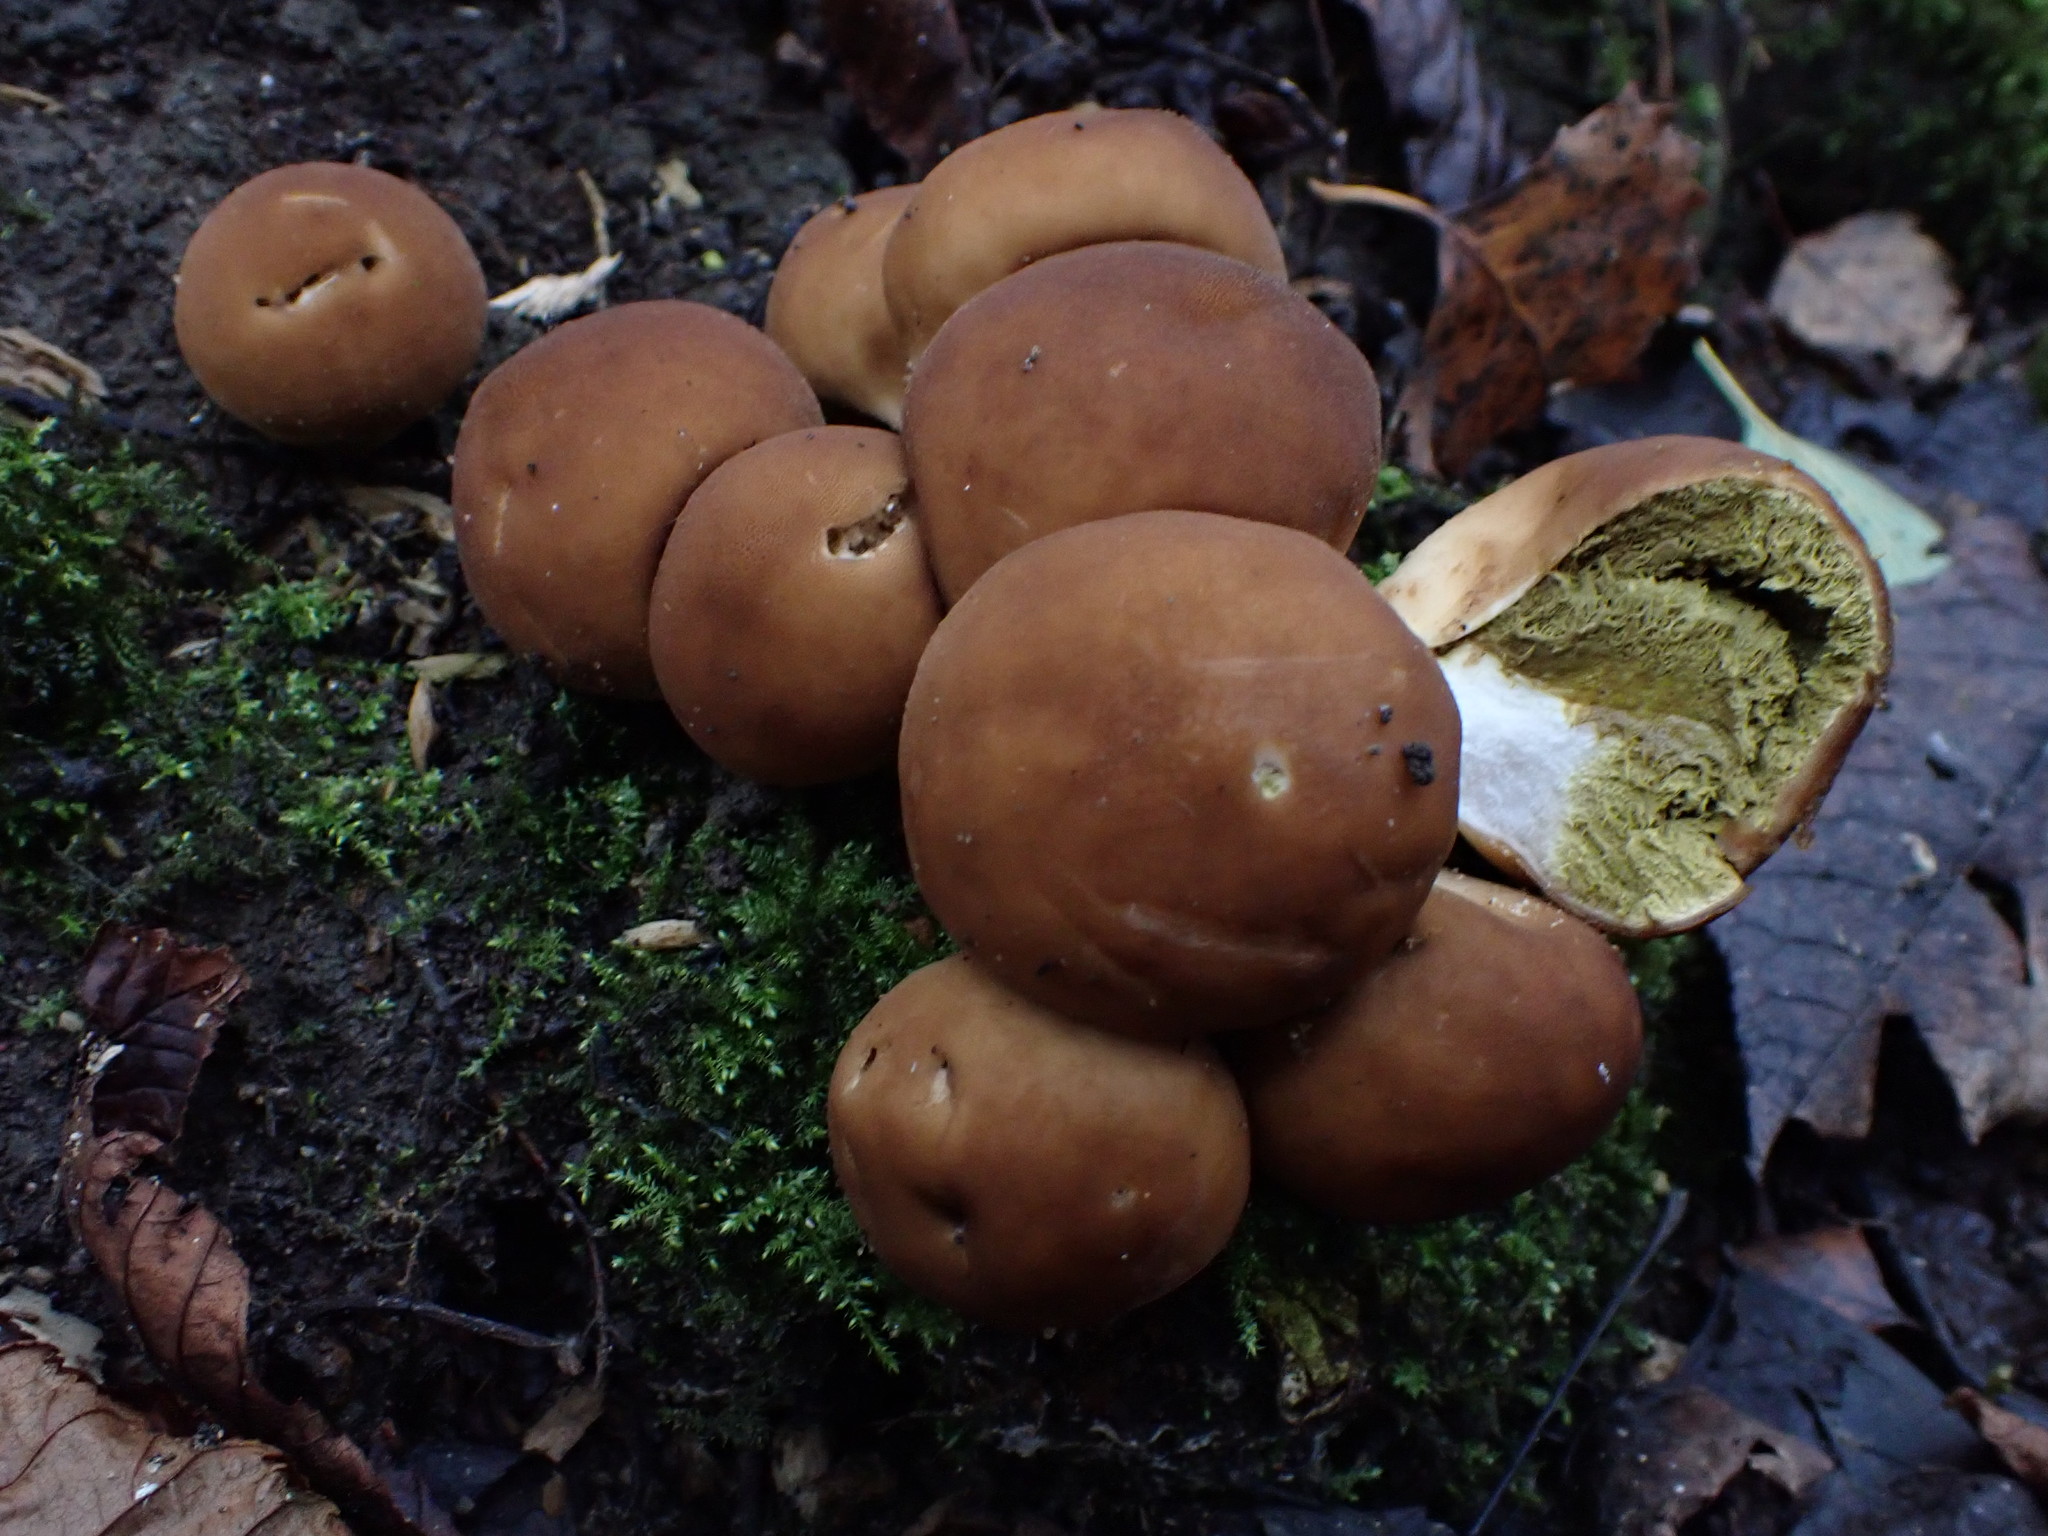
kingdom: Fungi
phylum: Basidiomycota
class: Agaricomycetes
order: Agaricales
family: Lycoperdaceae
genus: Apioperdon
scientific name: Apioperdon pyriforme
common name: Pear-shaped puffball
